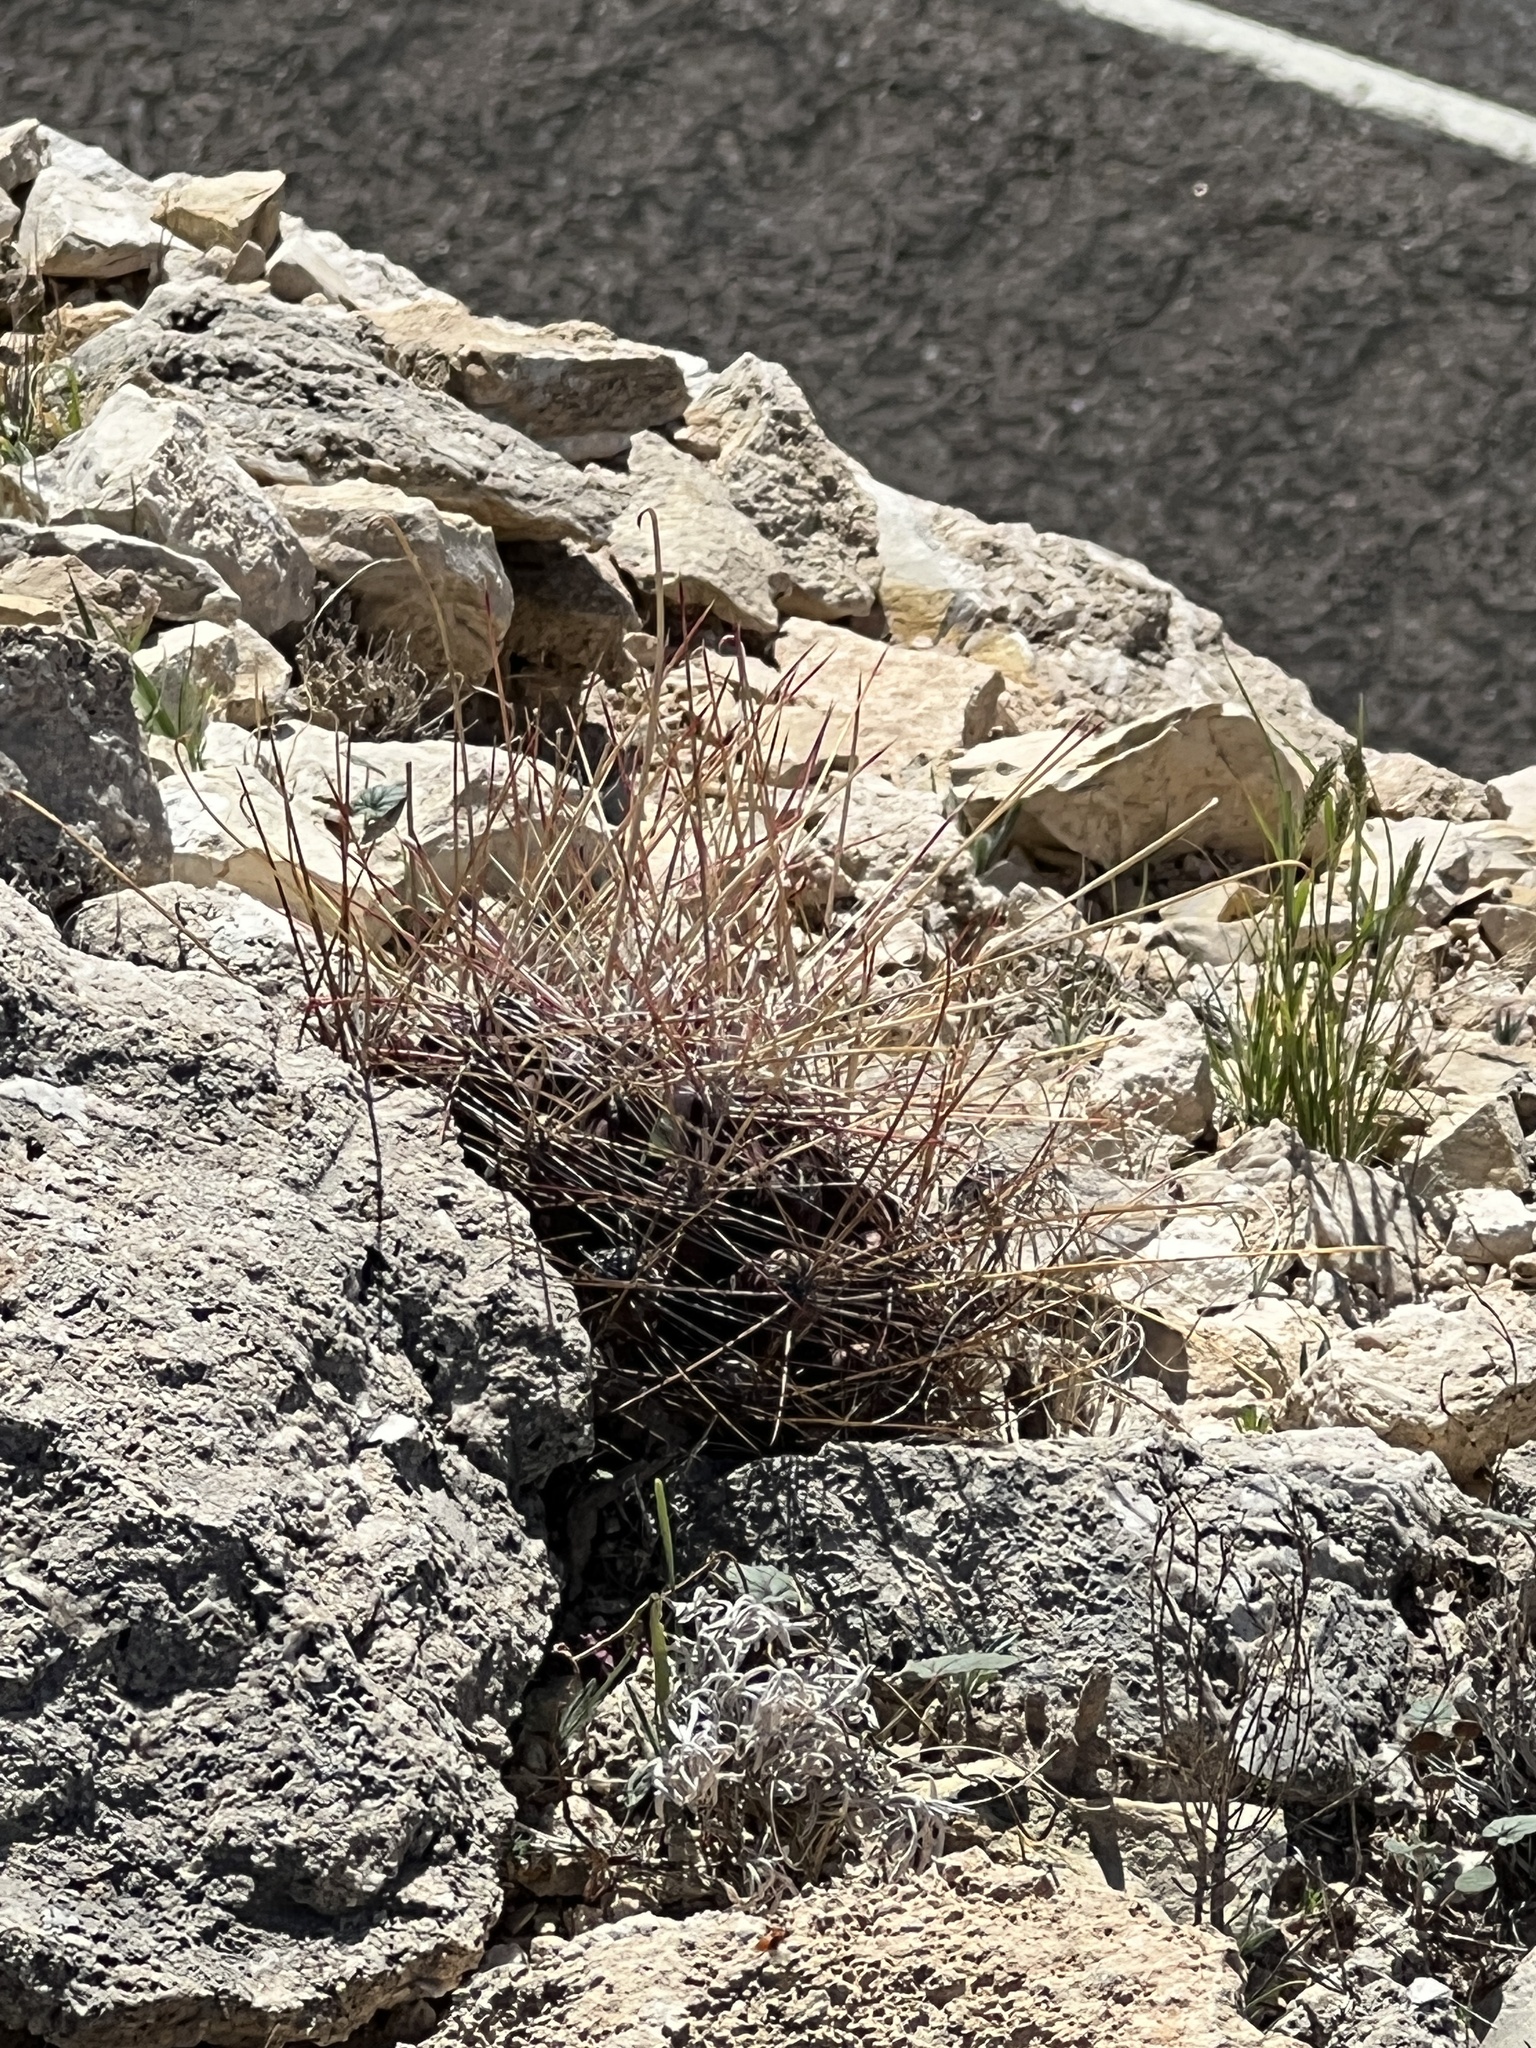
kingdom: Plantae
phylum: Tracheophyta
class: Magnoliopsida
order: Caryophyllales
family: Cactaceae
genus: Bisnaga
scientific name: Bisnaga hamatacantha
